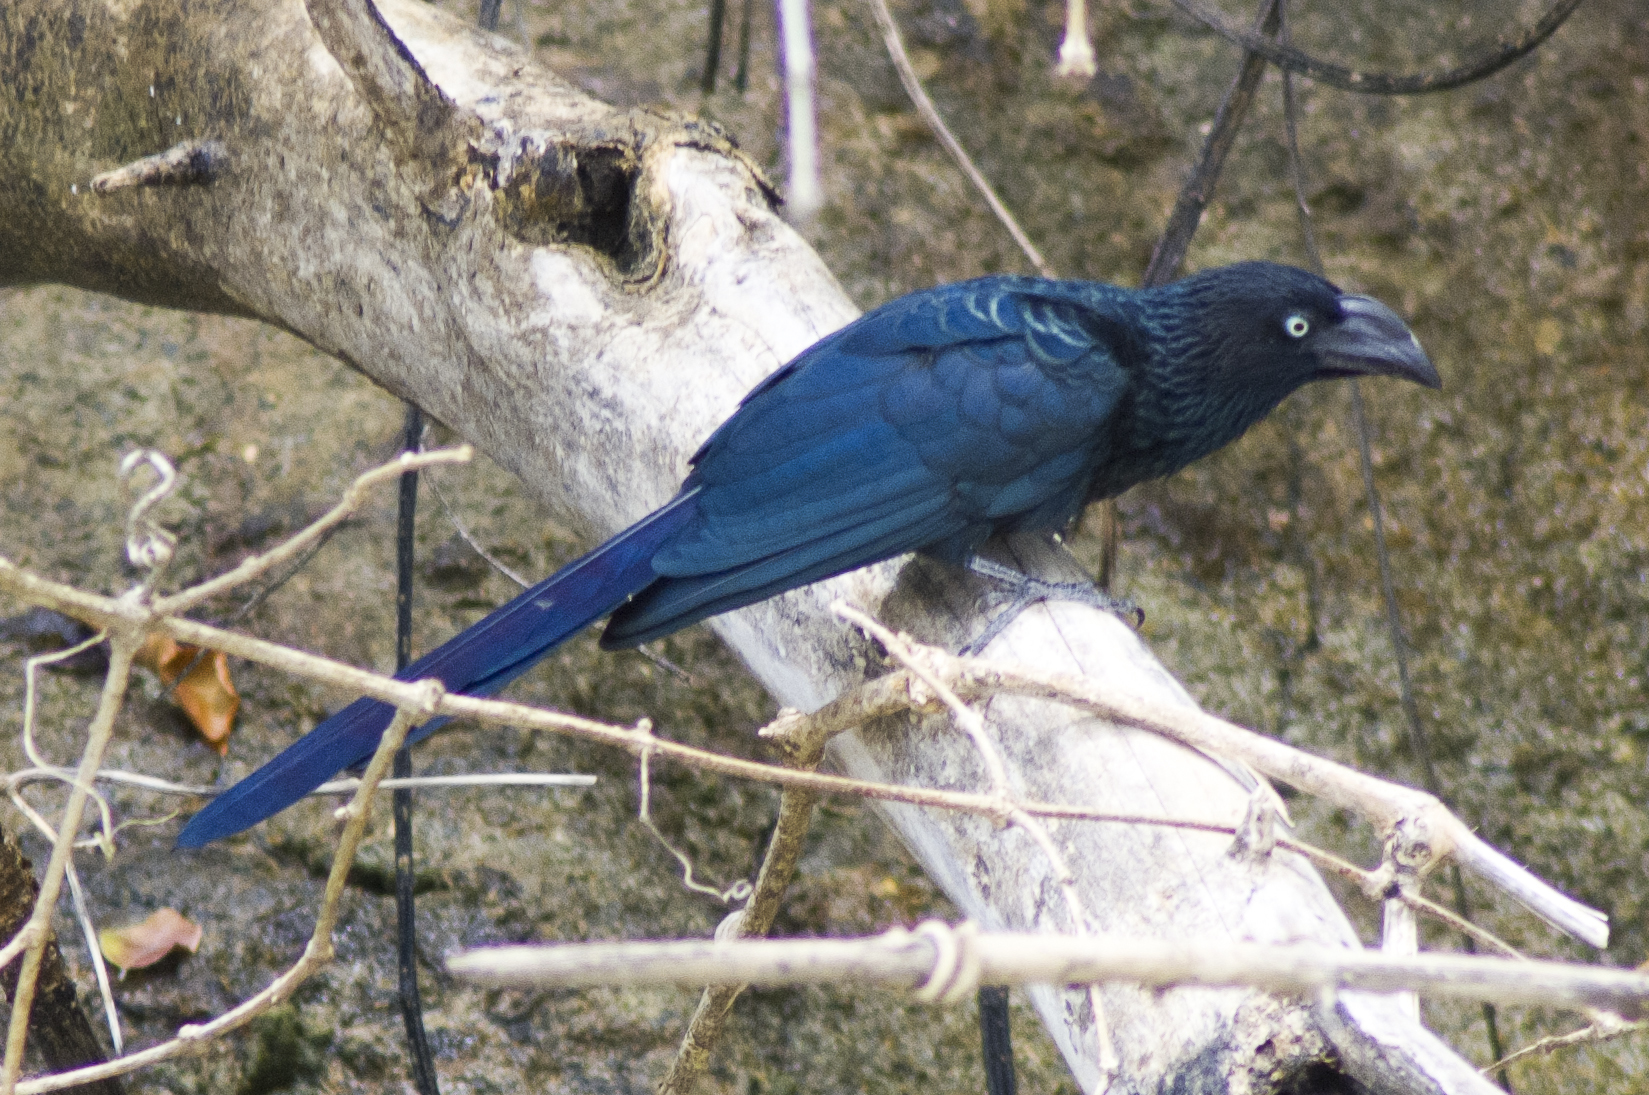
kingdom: Animalia
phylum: Chordata
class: Aves
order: Cuculiformes
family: Cuculidae
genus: Crotophaga
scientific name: Crotophaga major
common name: Greater ani
